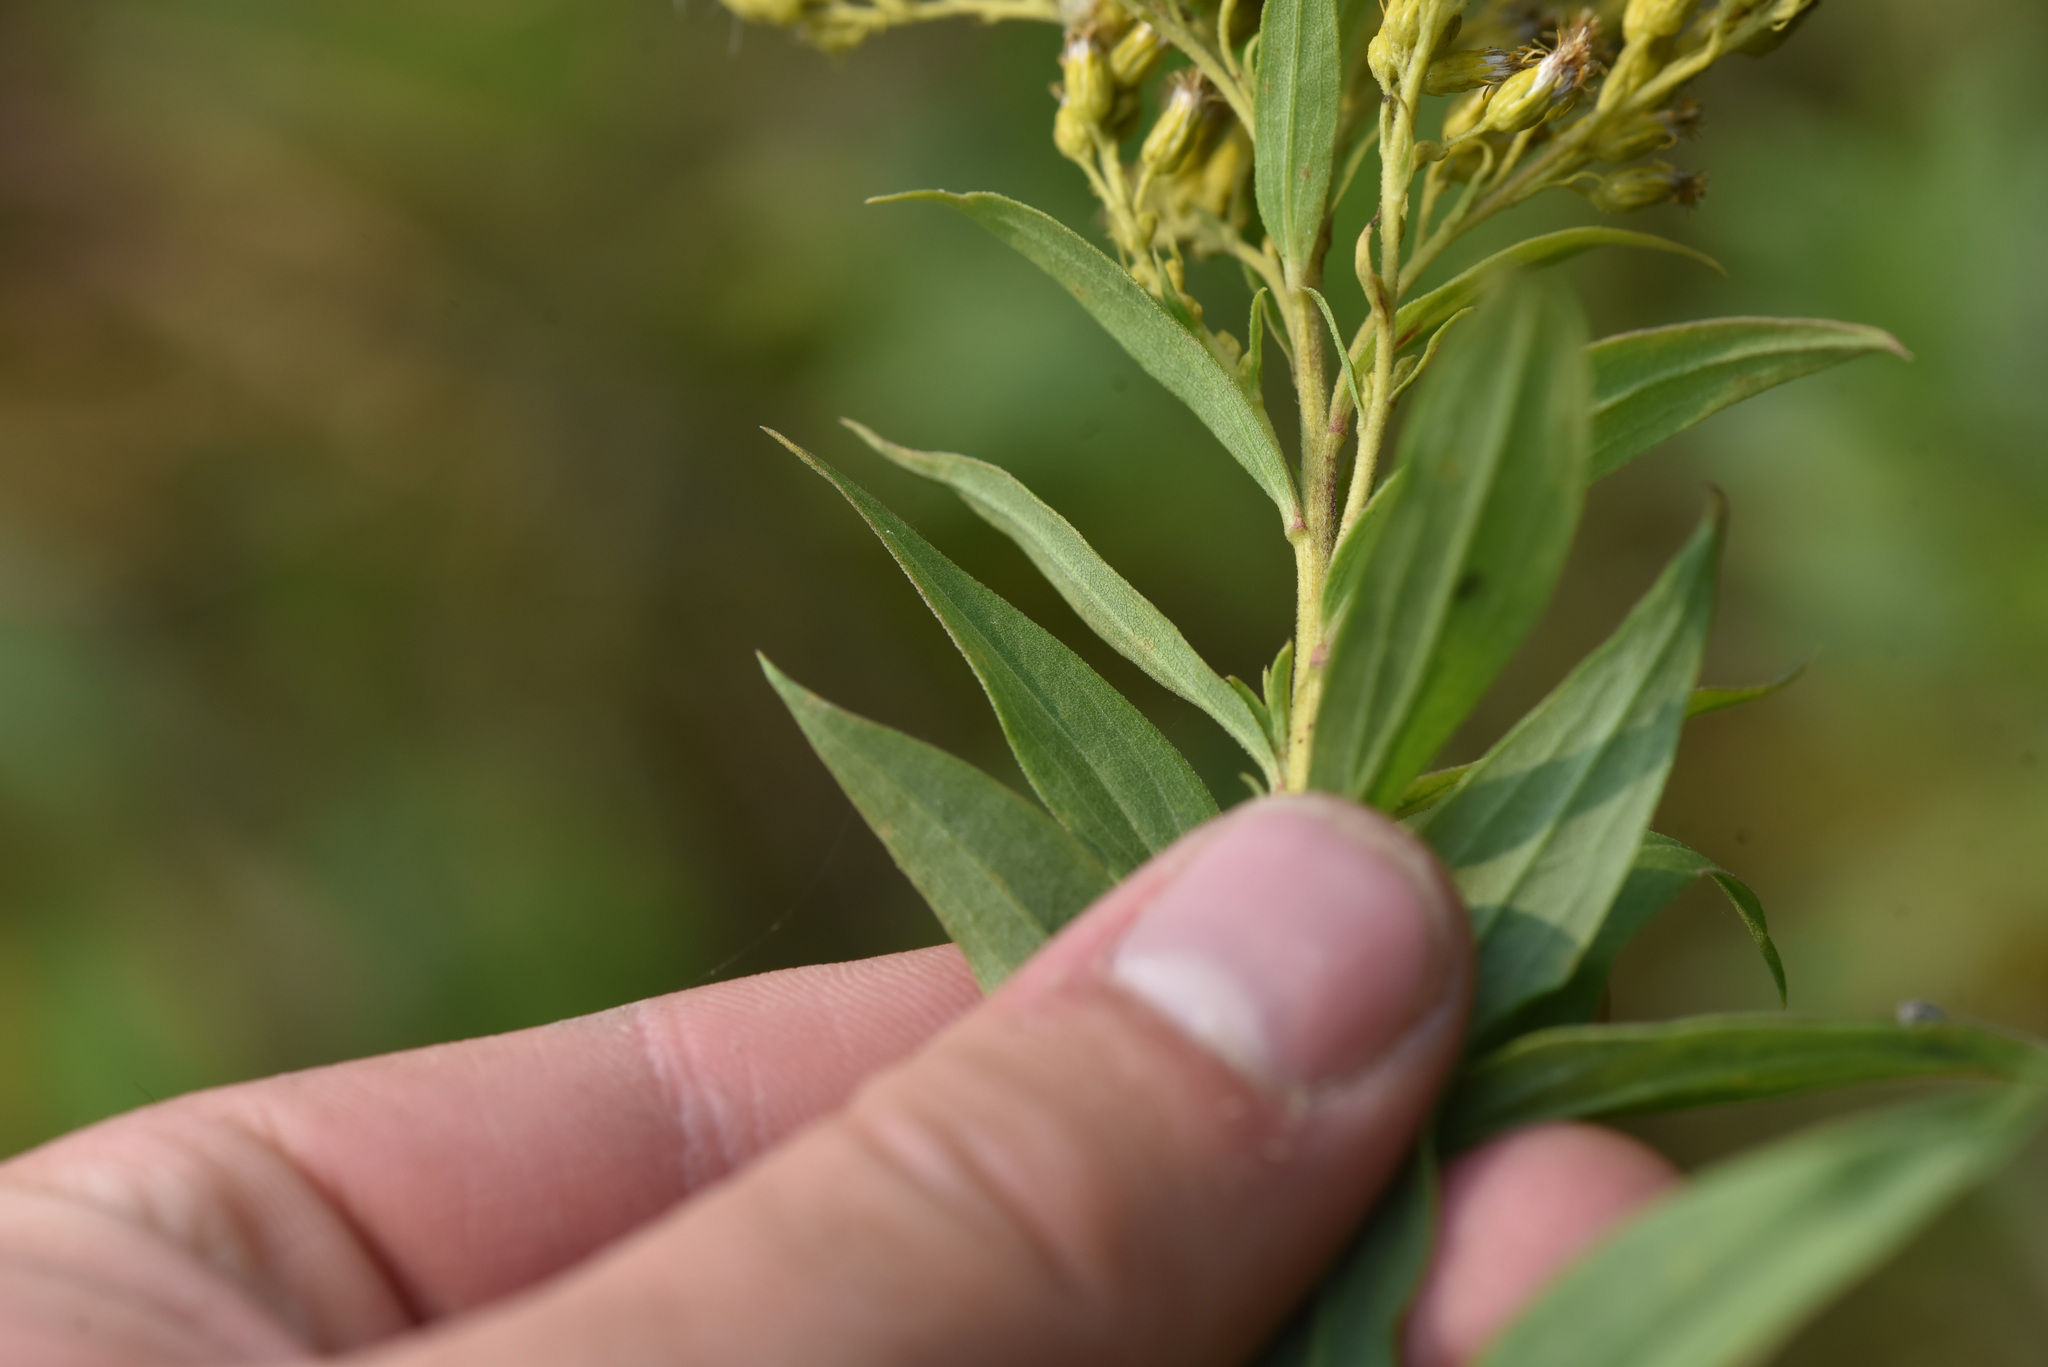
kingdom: Animalia
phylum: Arthropoda
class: Insecta
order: Diptera
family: Tephritidae
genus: Eurosta
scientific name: Eurosta solidaginis
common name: Goldenrod gall fly
